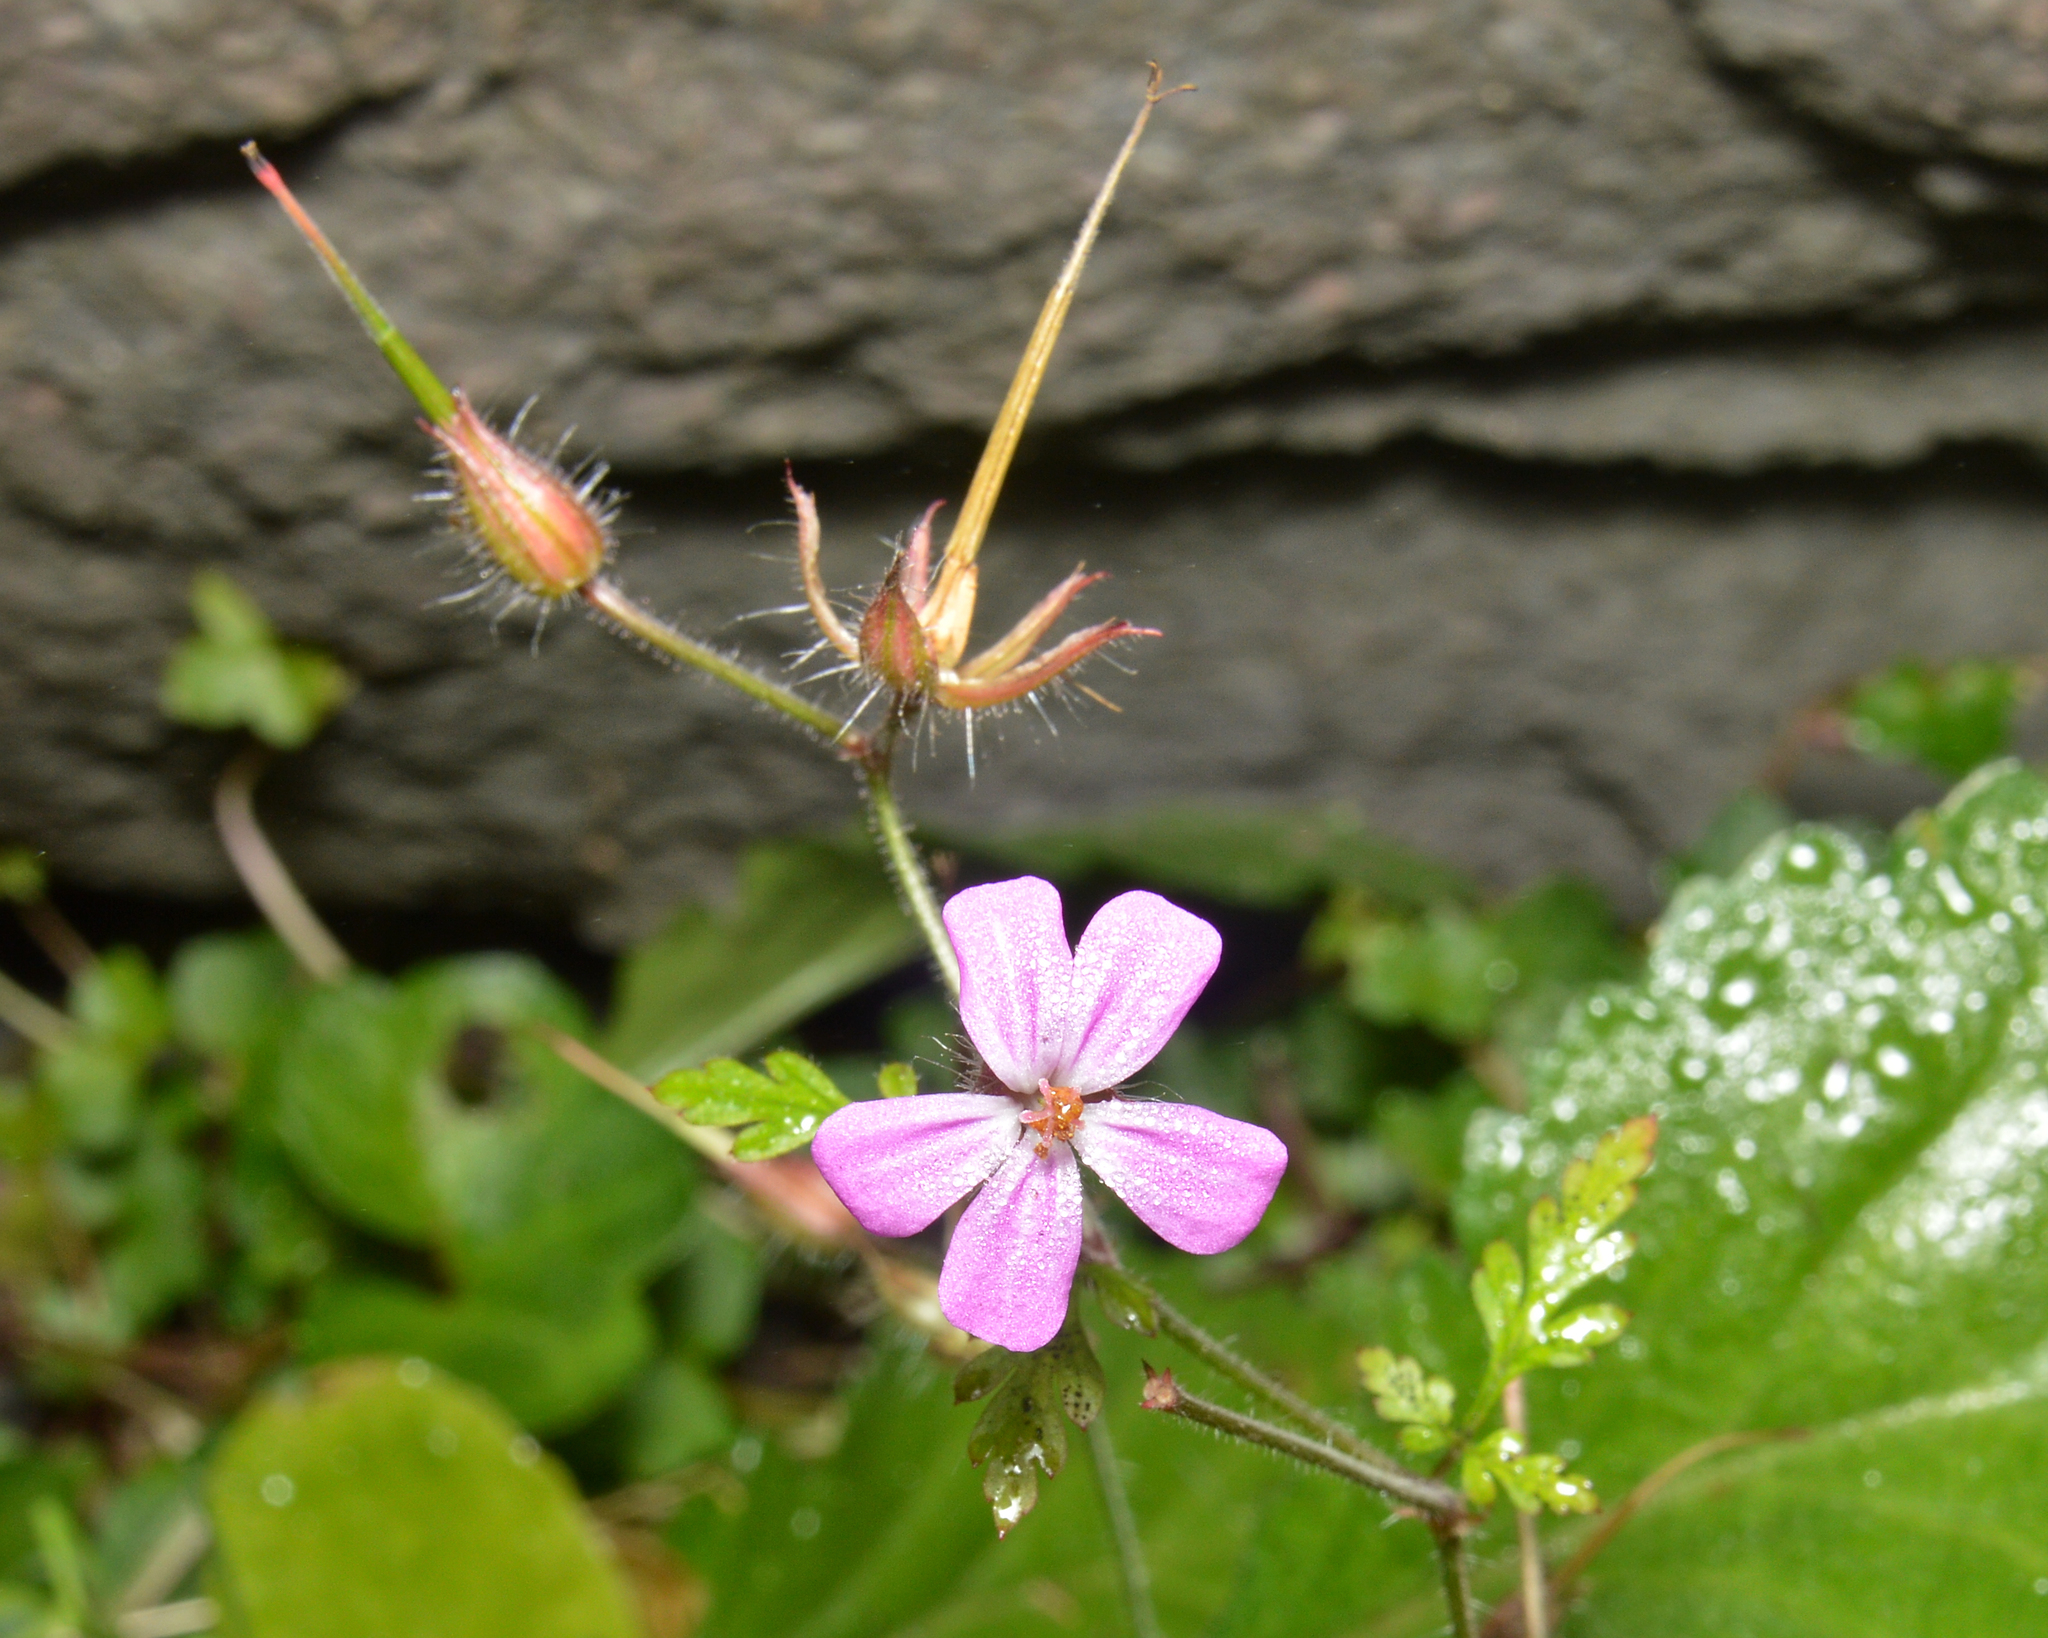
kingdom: Plantae
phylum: Tracheophyta
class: Magnoliopsida
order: Geraniales
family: Geraniaceae
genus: Geranium
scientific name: Geranium robertianum
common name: Herb-robert
